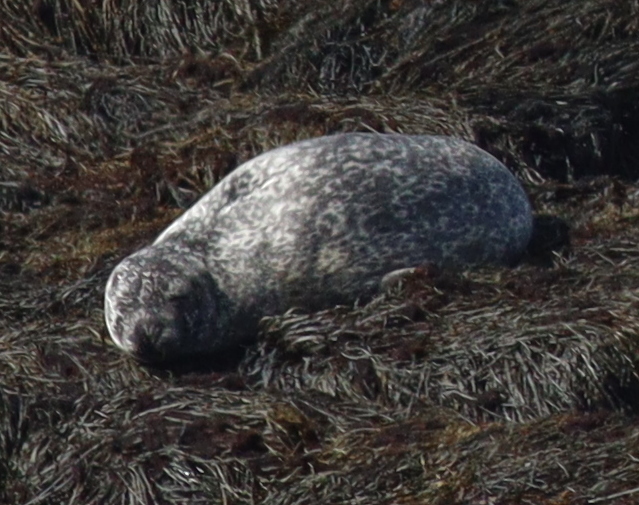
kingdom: Animalia
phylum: Chordata
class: Mammalia
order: Carnivora
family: Phocidae
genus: Phoca
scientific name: Phoca vitulina
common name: Harbor seal
